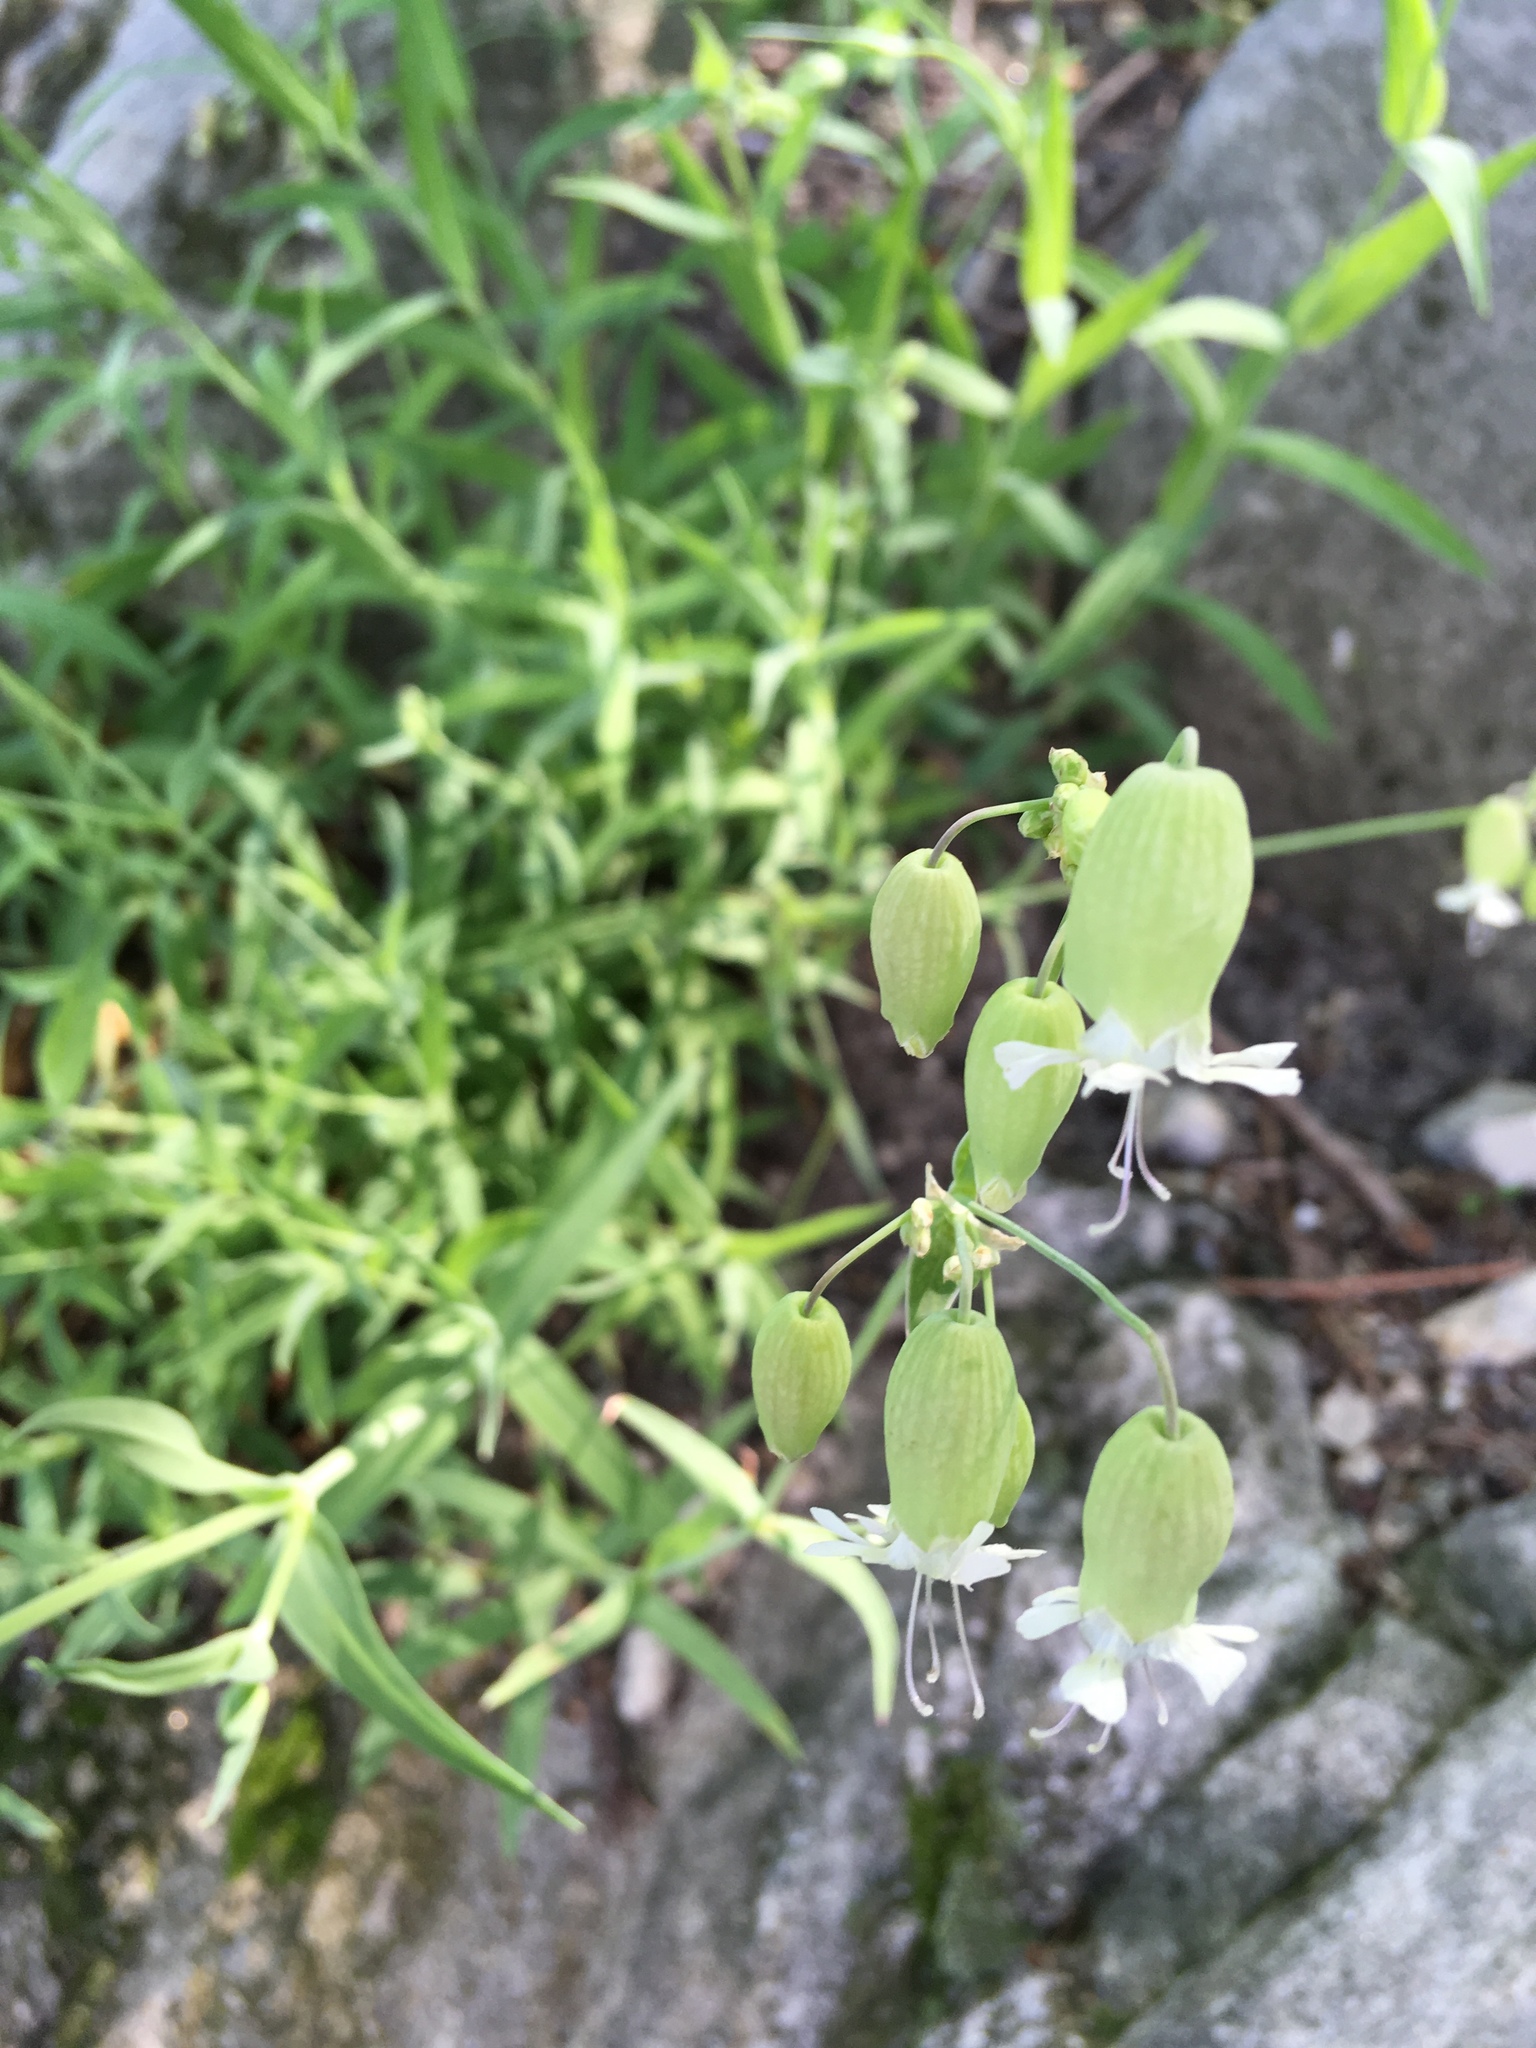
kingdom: Plantae
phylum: Tracheophyta
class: Magnoliopsida
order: Caryophyllales
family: Caryophyllaceae
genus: Silene
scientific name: Silene vulgaris
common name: Bladder campion
